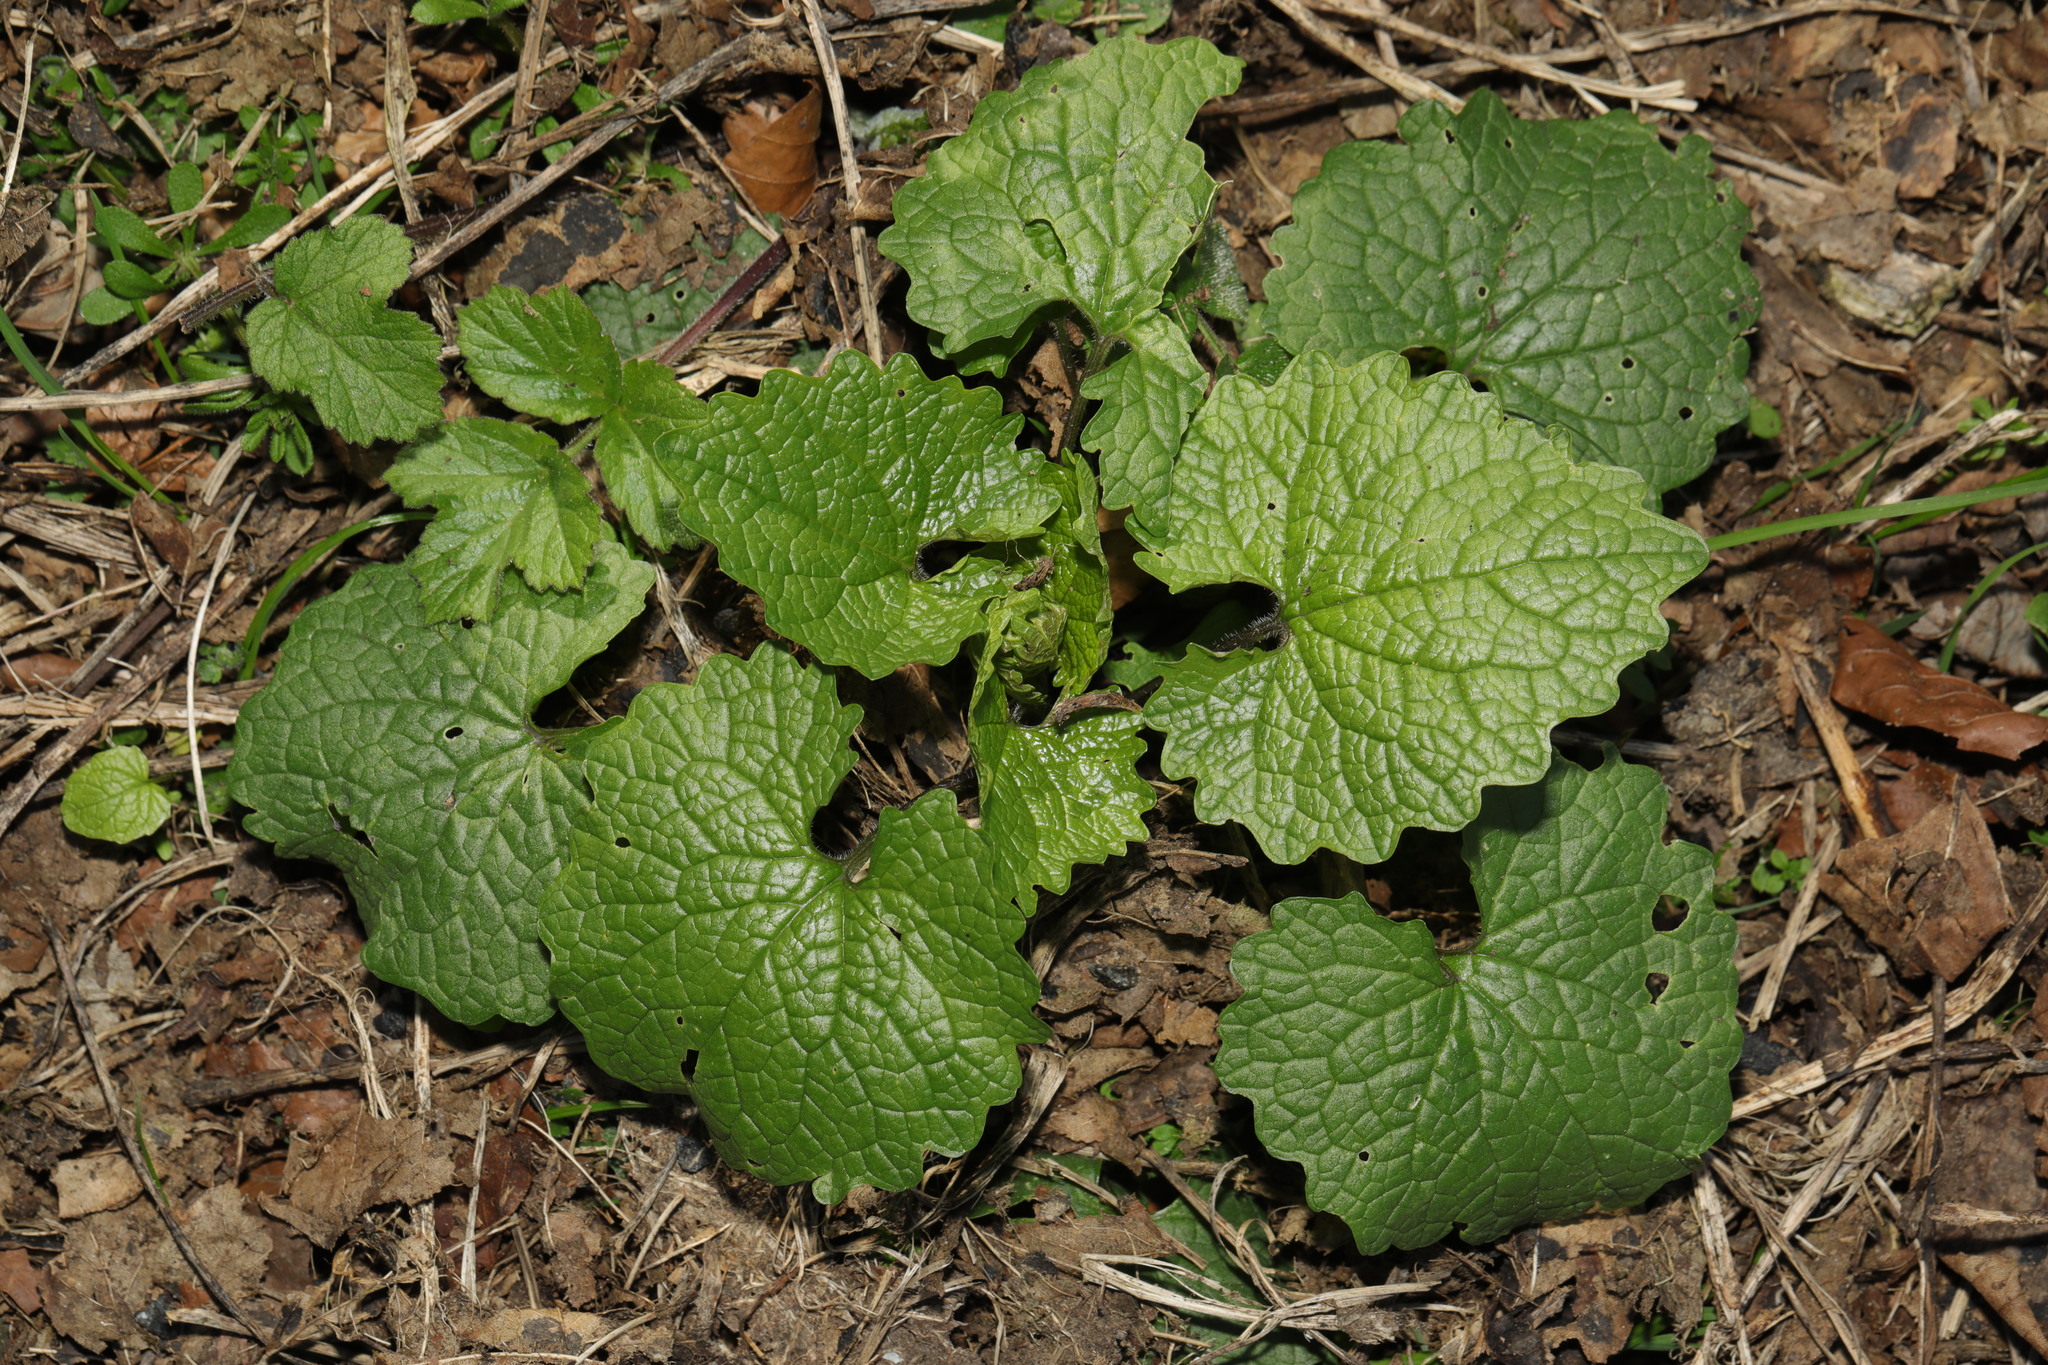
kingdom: Plantae
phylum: Tracheophyta
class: Magnoliopsida
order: Brassicales
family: Brassicaceae
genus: Alliaria
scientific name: Alliaria petiolata
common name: Garlic mustard
